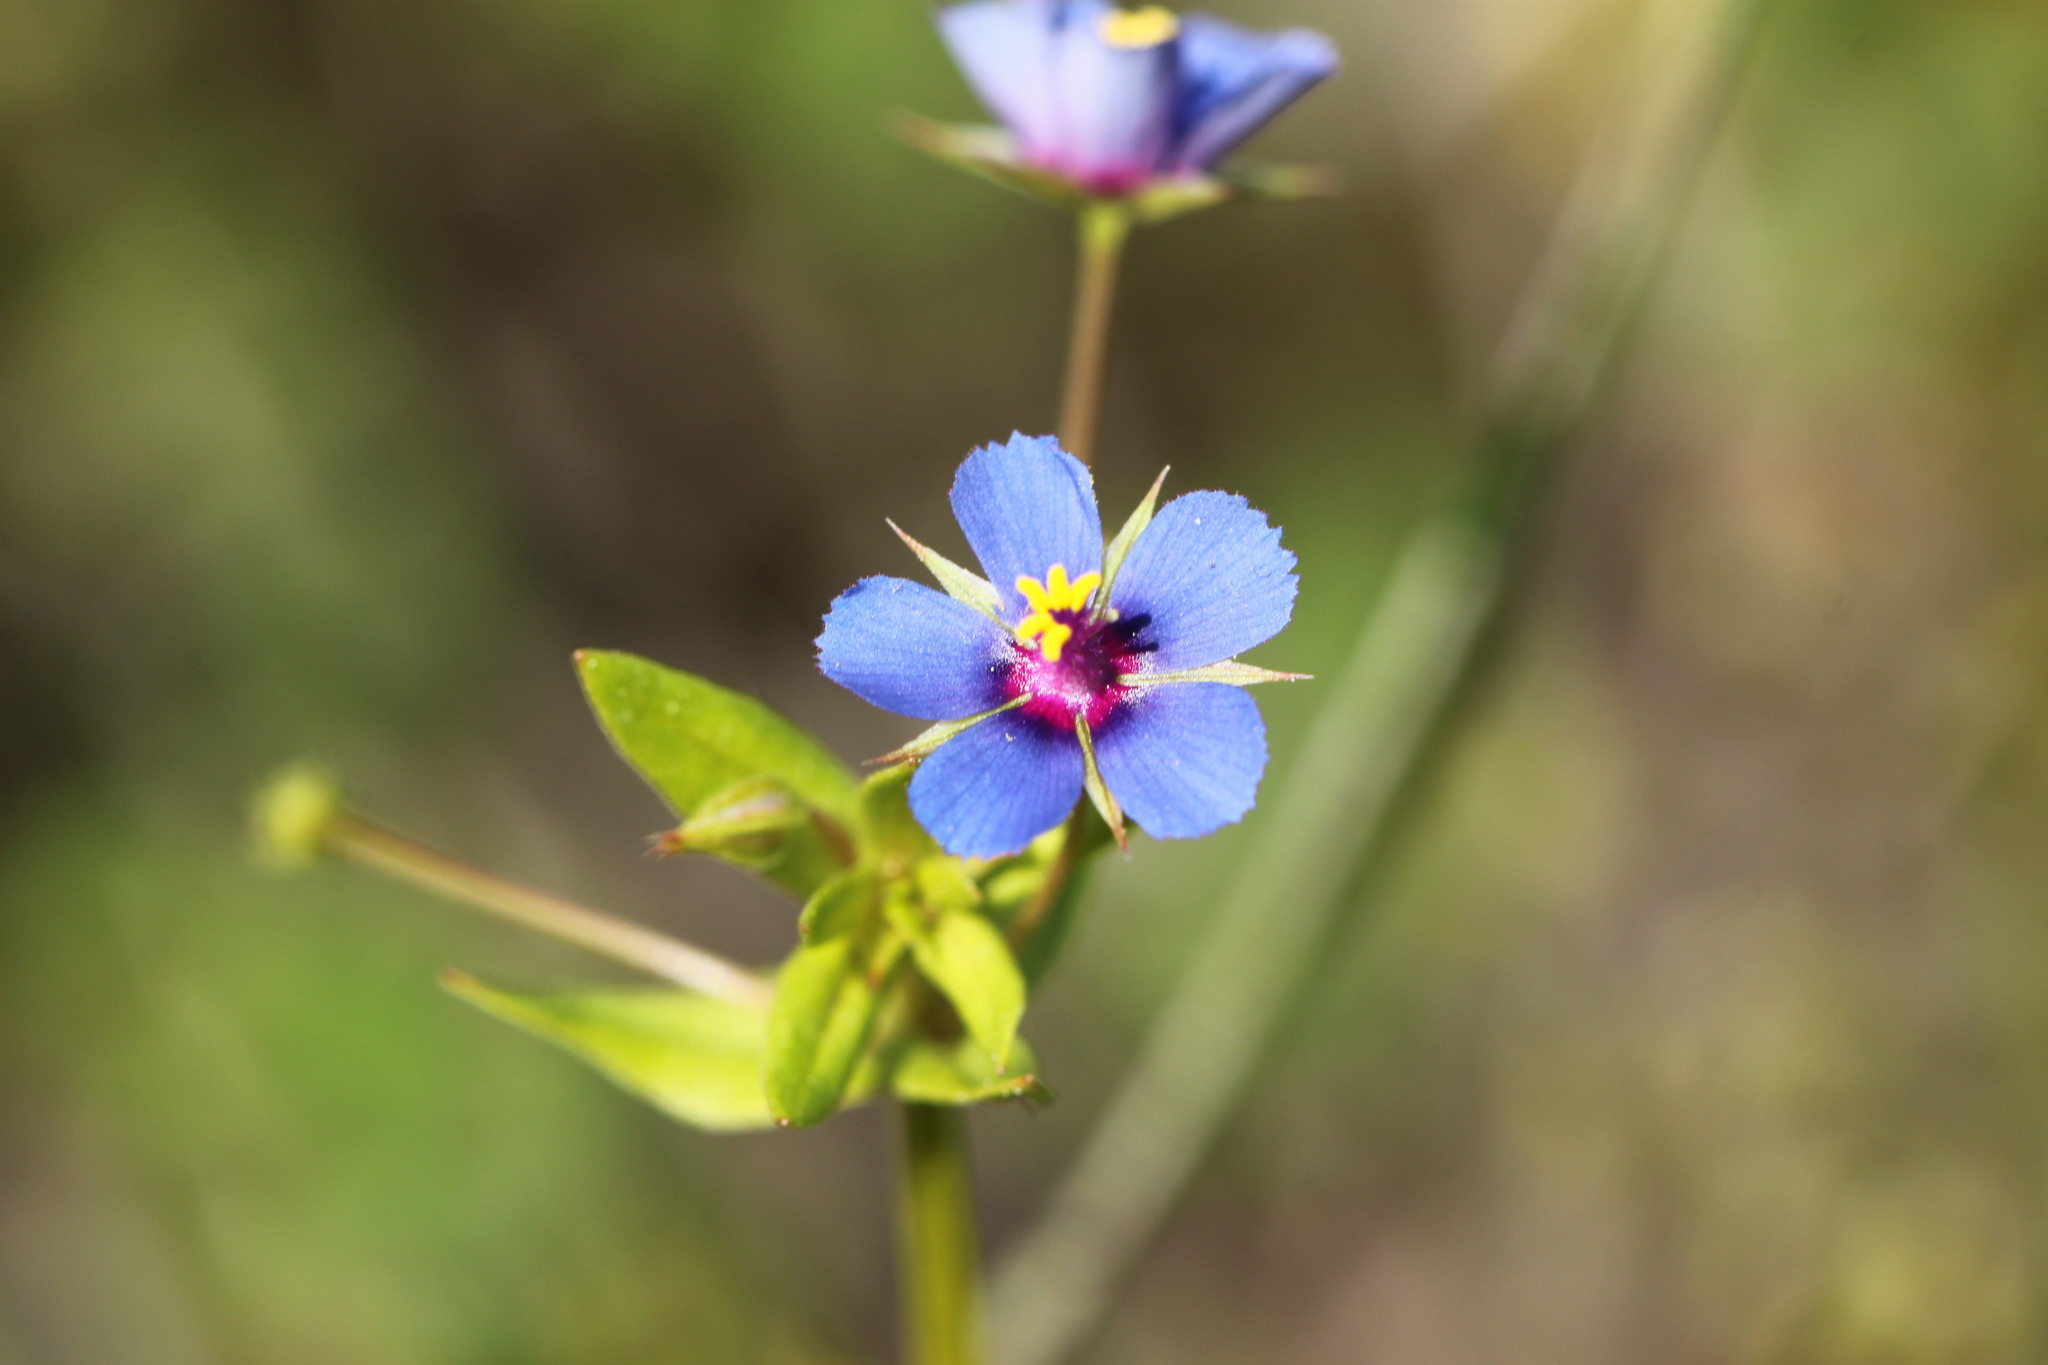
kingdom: Plantae
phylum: Tracheophyta
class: Magnoliopsida
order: Ericales
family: Primulaceae
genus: Lysimachia
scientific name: Lysimachia foemina
